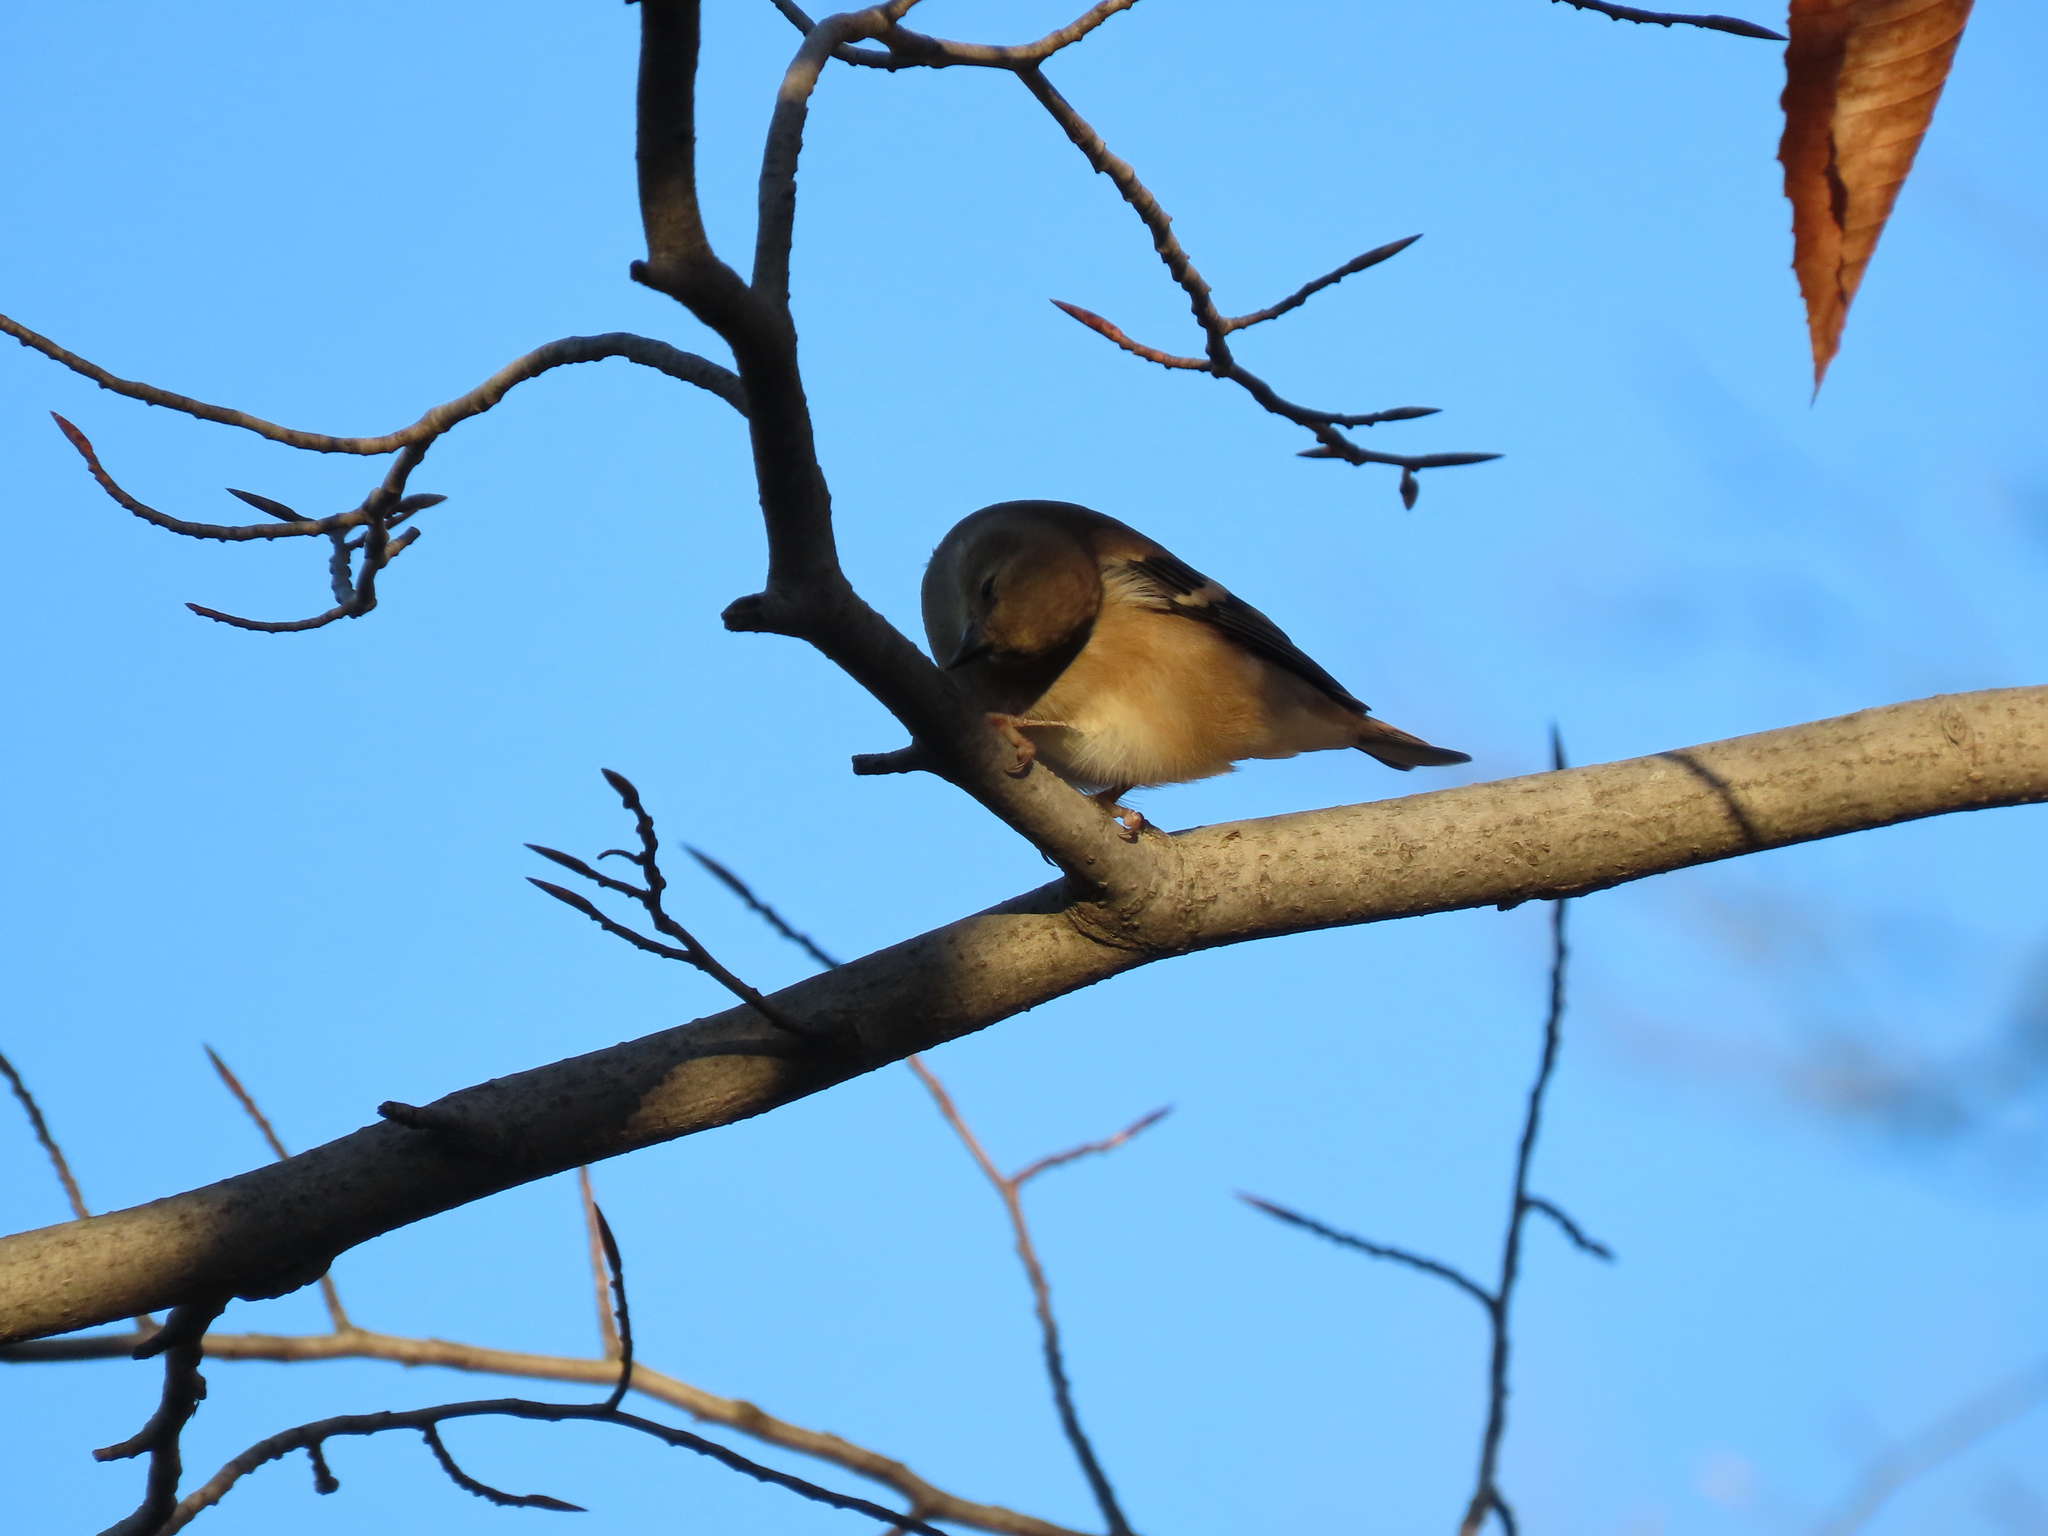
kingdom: Animalia
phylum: Chordata
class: Aves
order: Passeriformes
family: Fringillidae
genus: Spinus
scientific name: Spinus tristis
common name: American goldfinch
